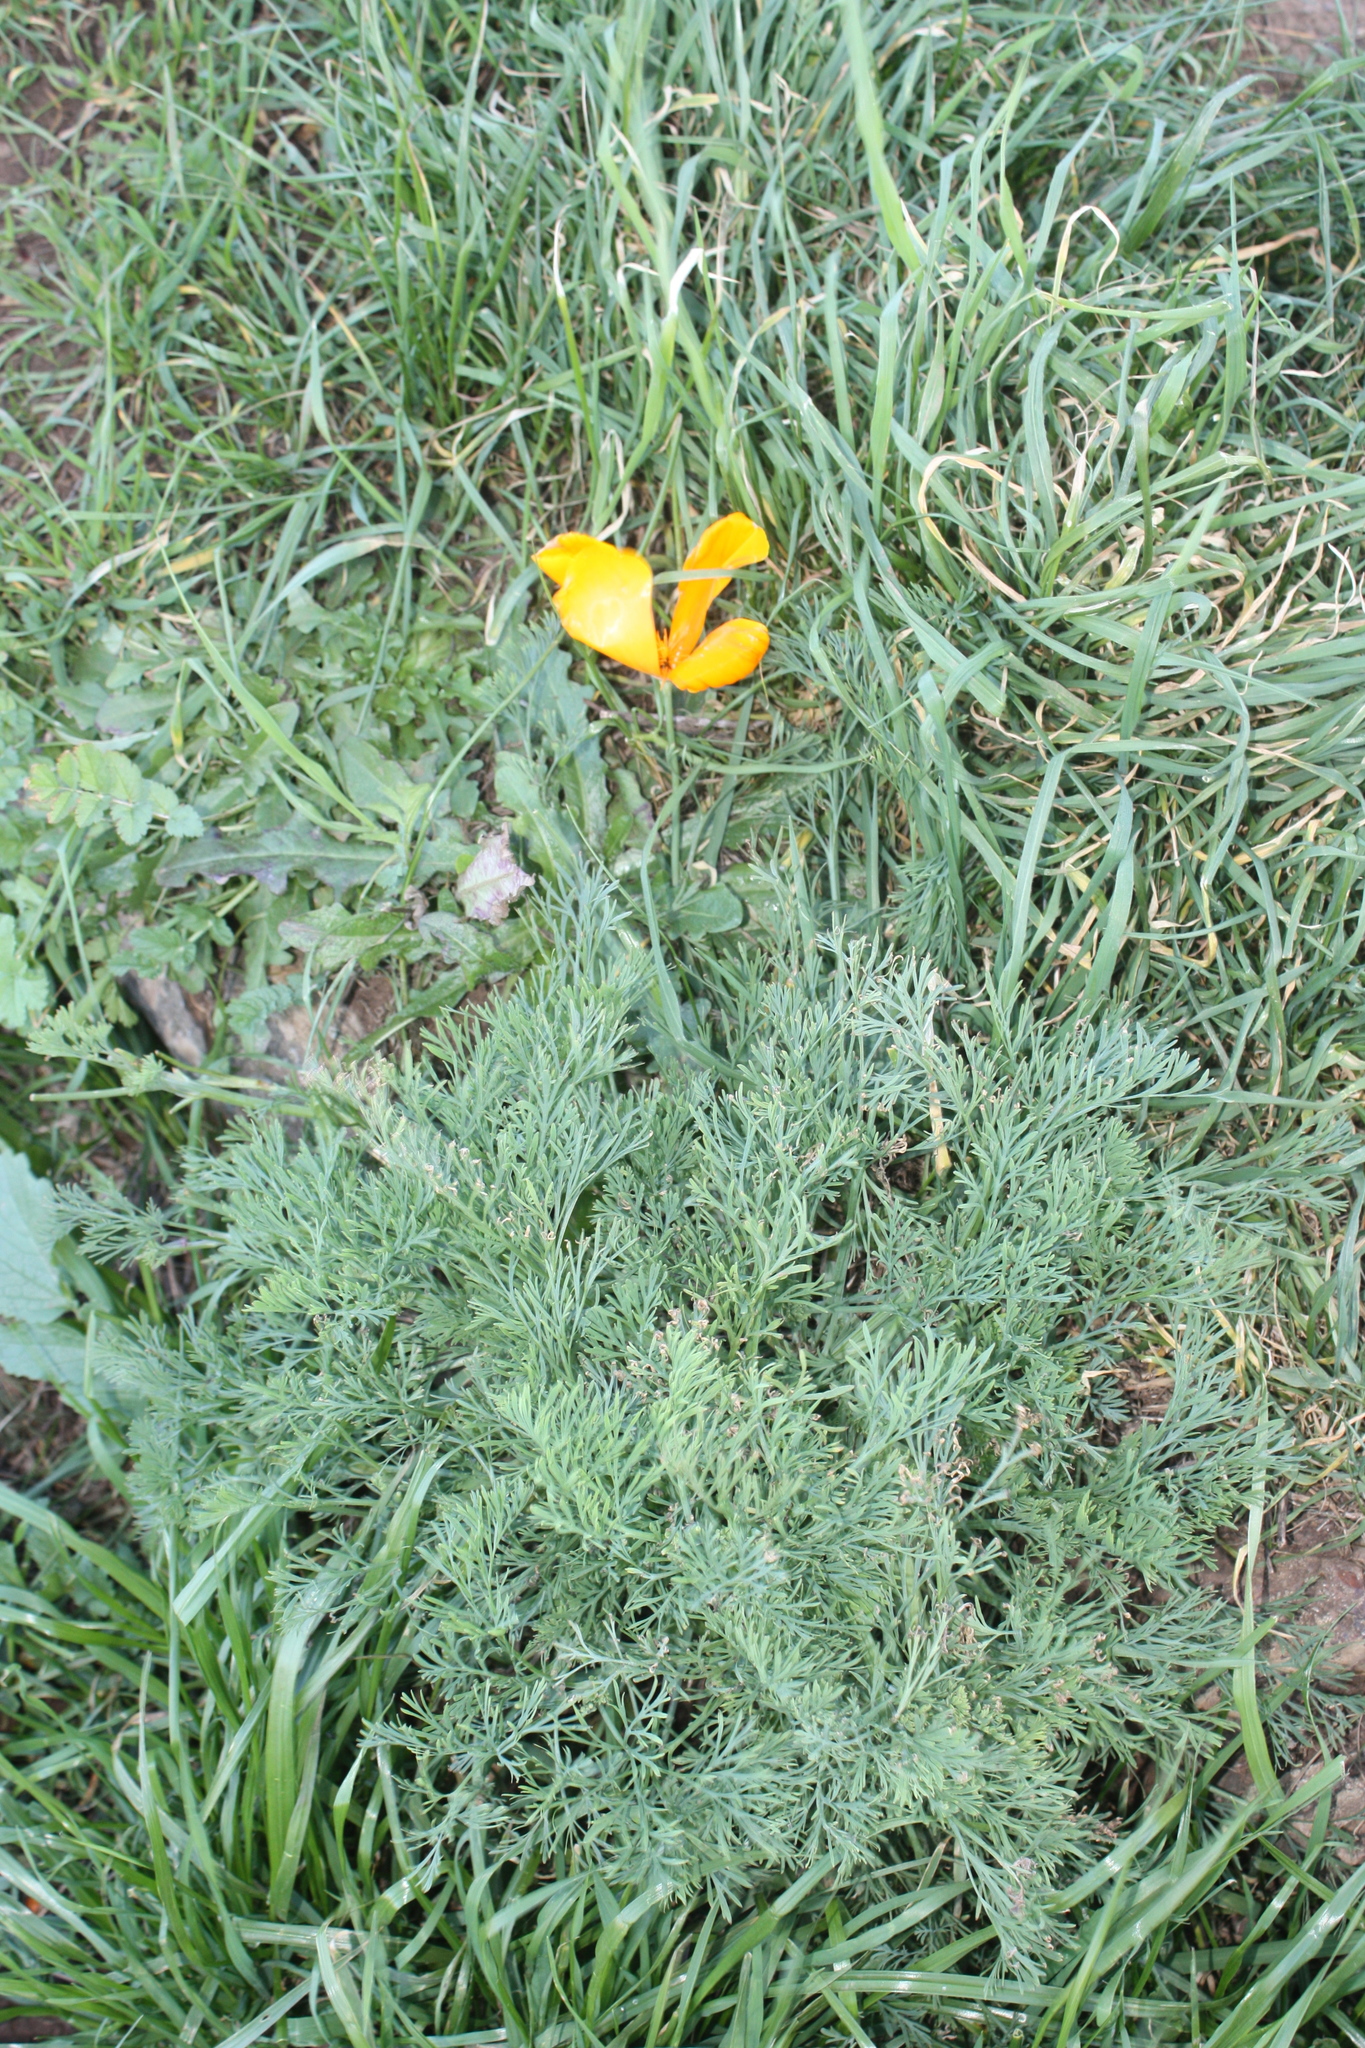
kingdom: Plantae
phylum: Tracheophyta
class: Magnoliopsida
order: Ranunculales
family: Papaveraceae
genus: Eschscholzia
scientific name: Eschscholzia californica
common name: California poppy
